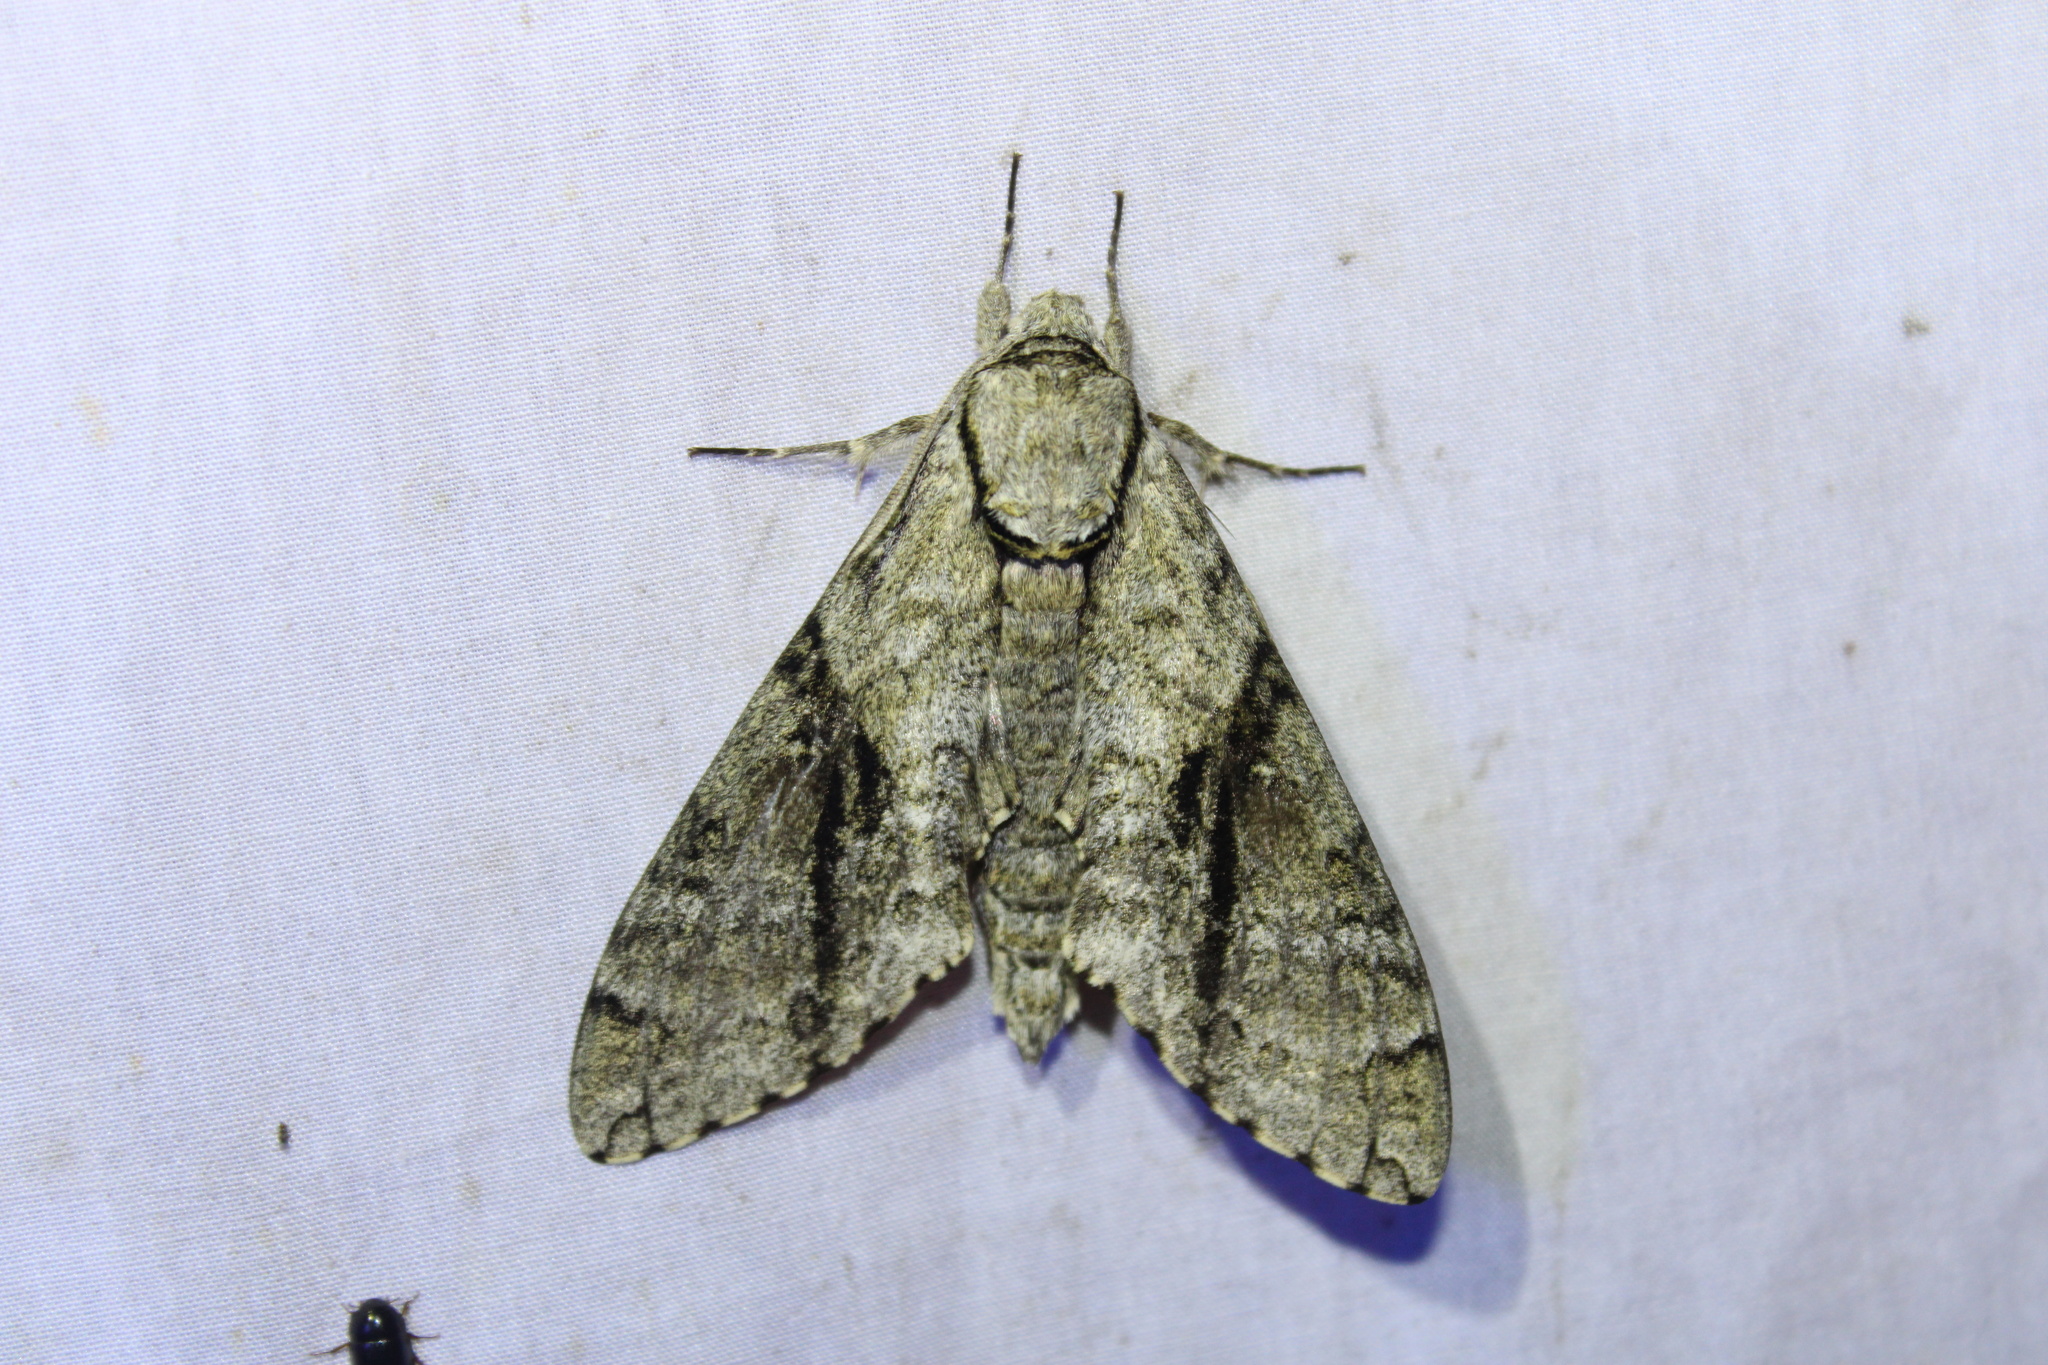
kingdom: Animalia
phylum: Arthropoda
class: Insecta
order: Lepidoptera
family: Sphingidae
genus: Manduca
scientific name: Manduca jasminearum
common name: Ash sphinx
